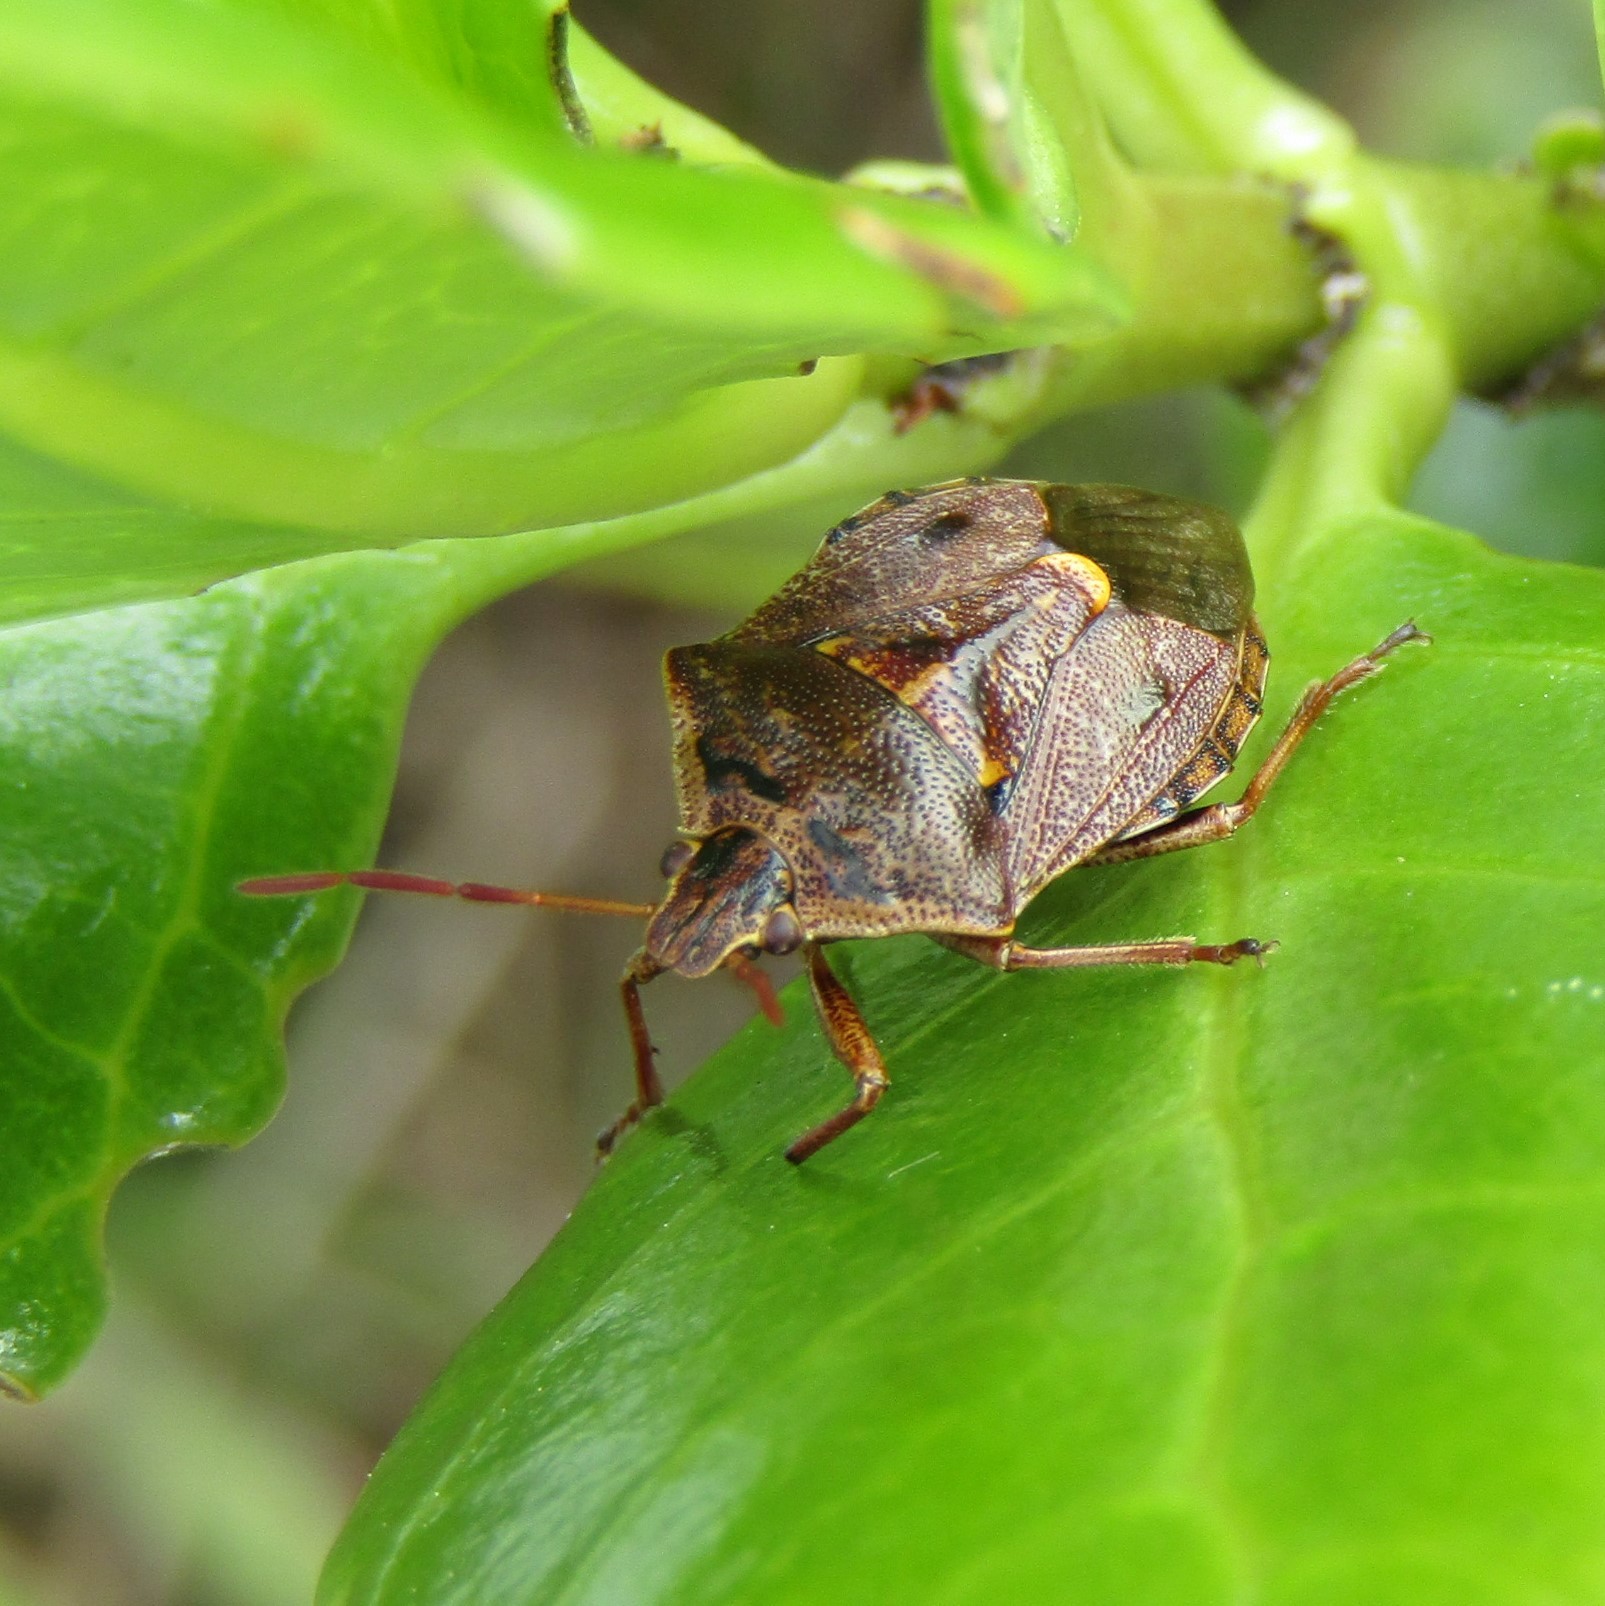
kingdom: Animalia
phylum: Arthropoda
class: Insecta
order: Hemiptera
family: Pentatomidae
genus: Cermatulus
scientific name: Cermatulus nasalis
